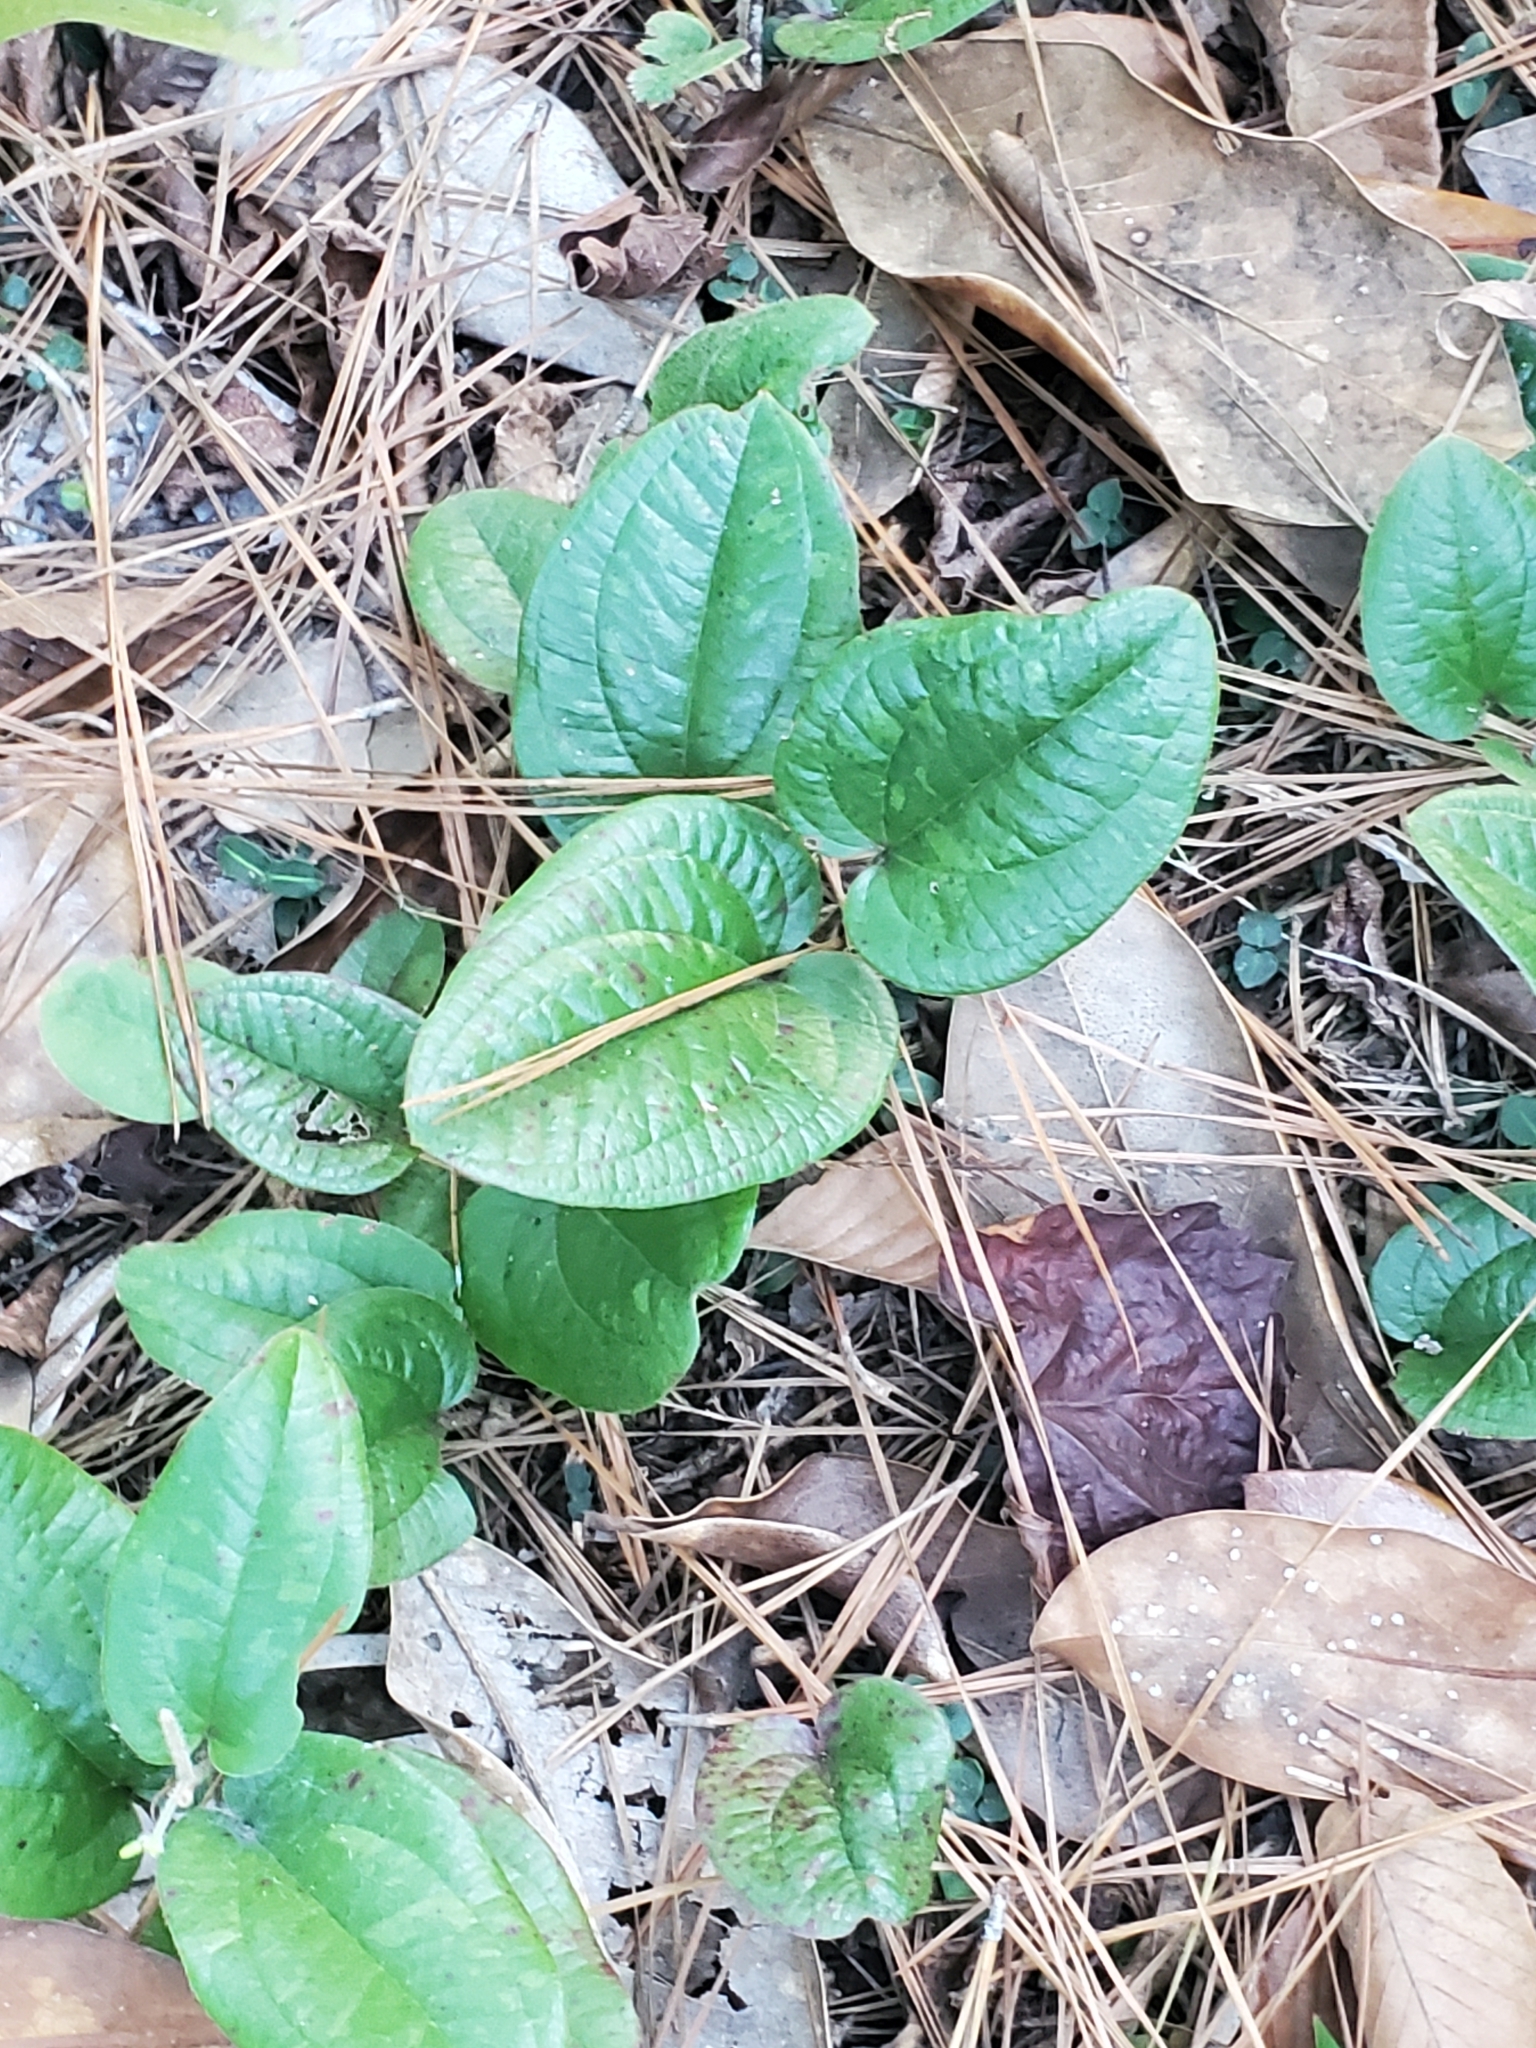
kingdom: Plantae
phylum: Tracheophyta
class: Liliopsida
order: Liliales
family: Smilacaceae
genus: Smilax
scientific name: Smilax pumila
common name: Sarsaparilla-vine
